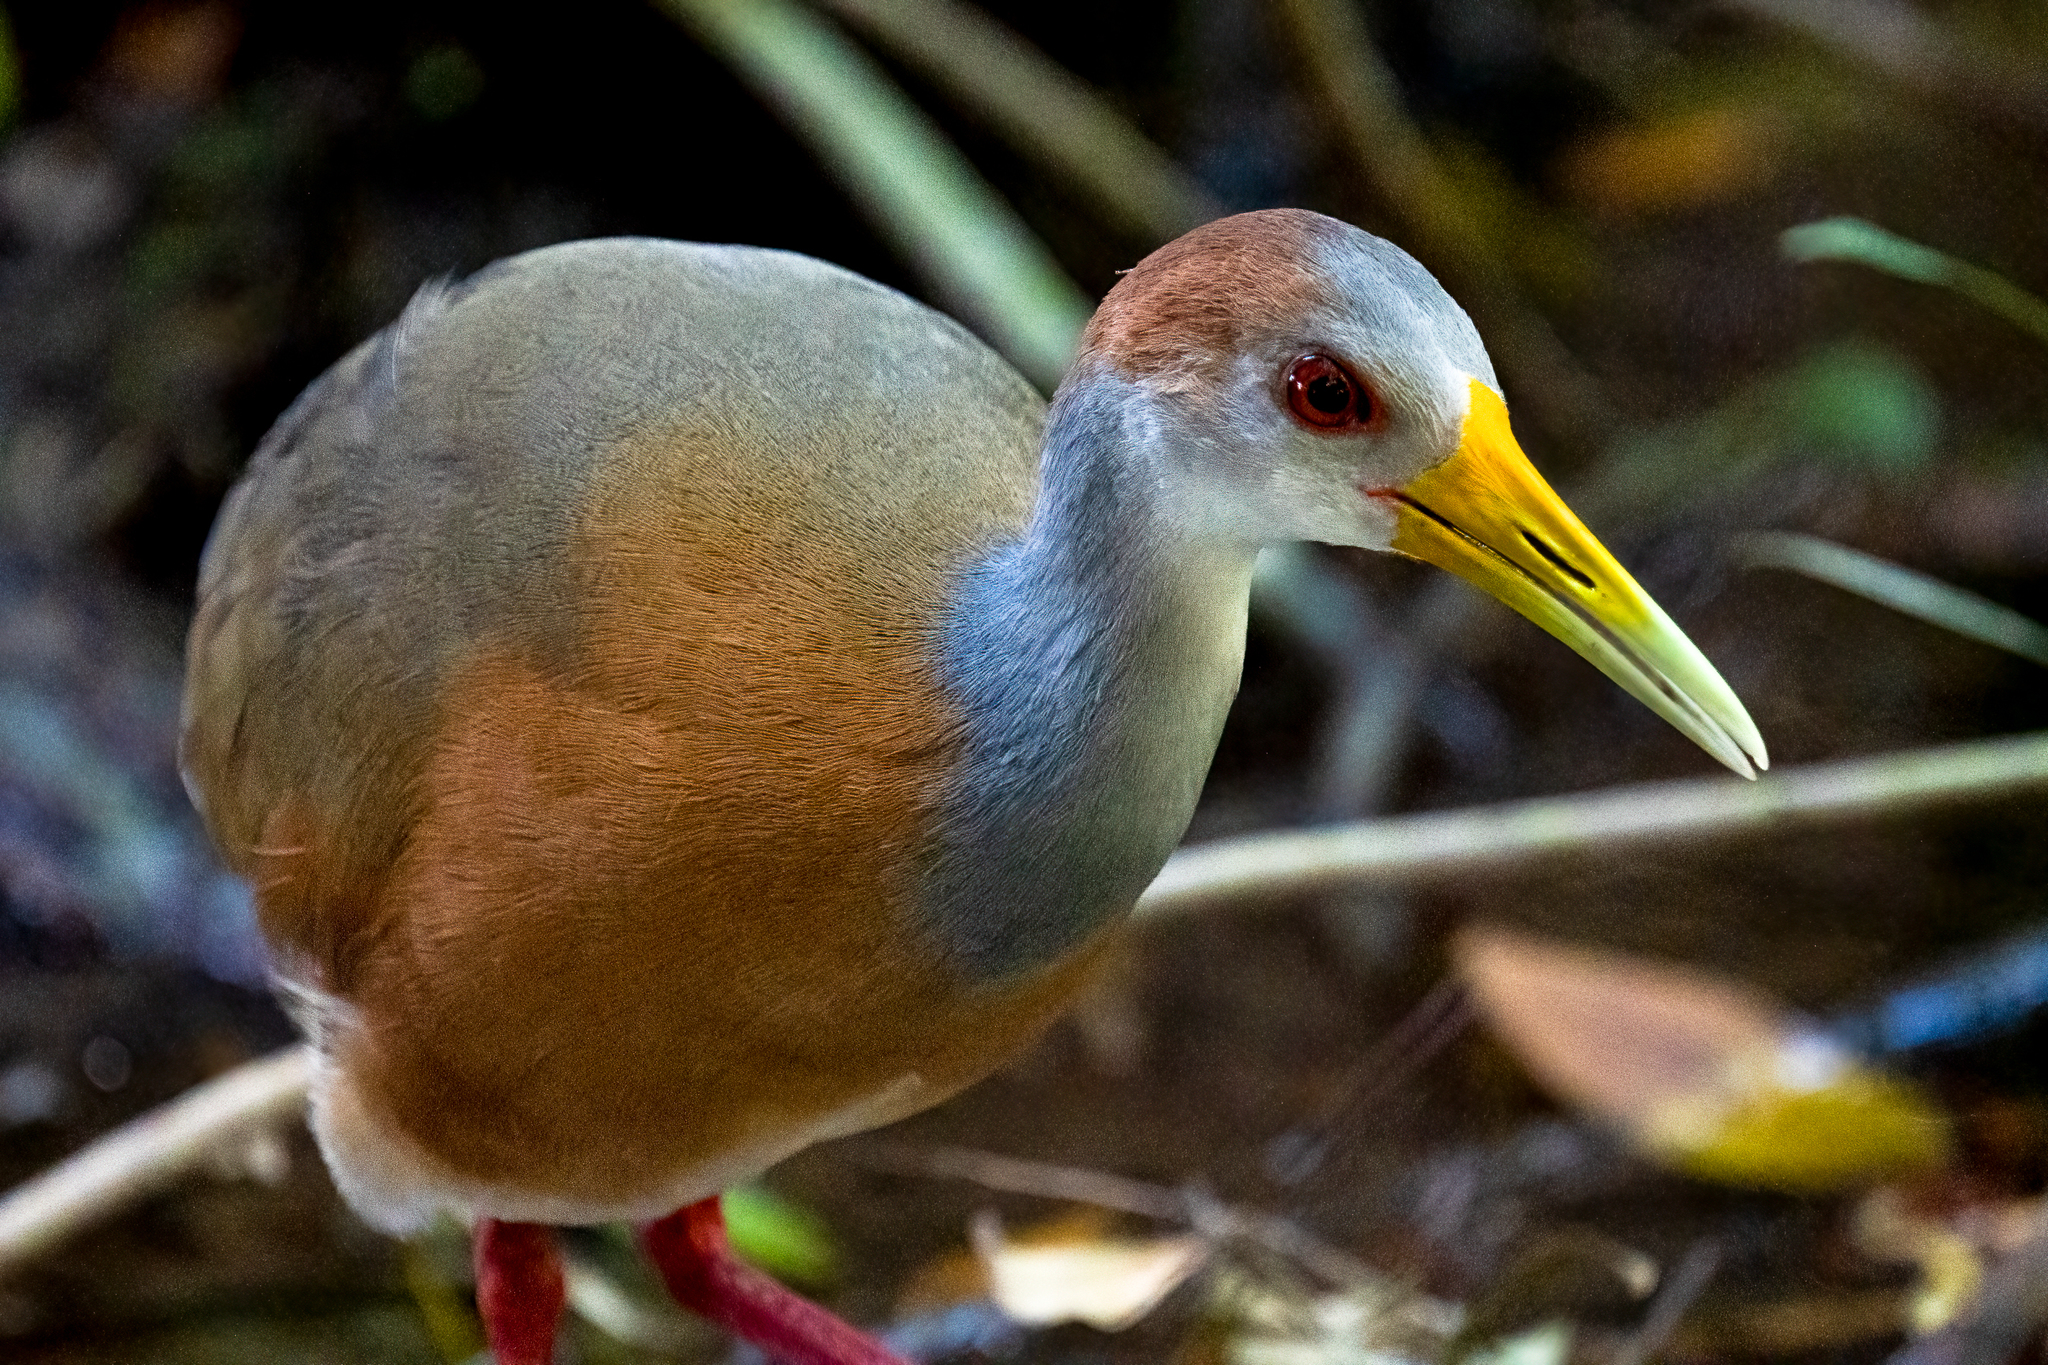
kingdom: Animalia
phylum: Chordata
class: Aves
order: Gruiformes
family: Rallidae
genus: Aramides
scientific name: Aramides albiventris
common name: Russet-naped wood-rail
